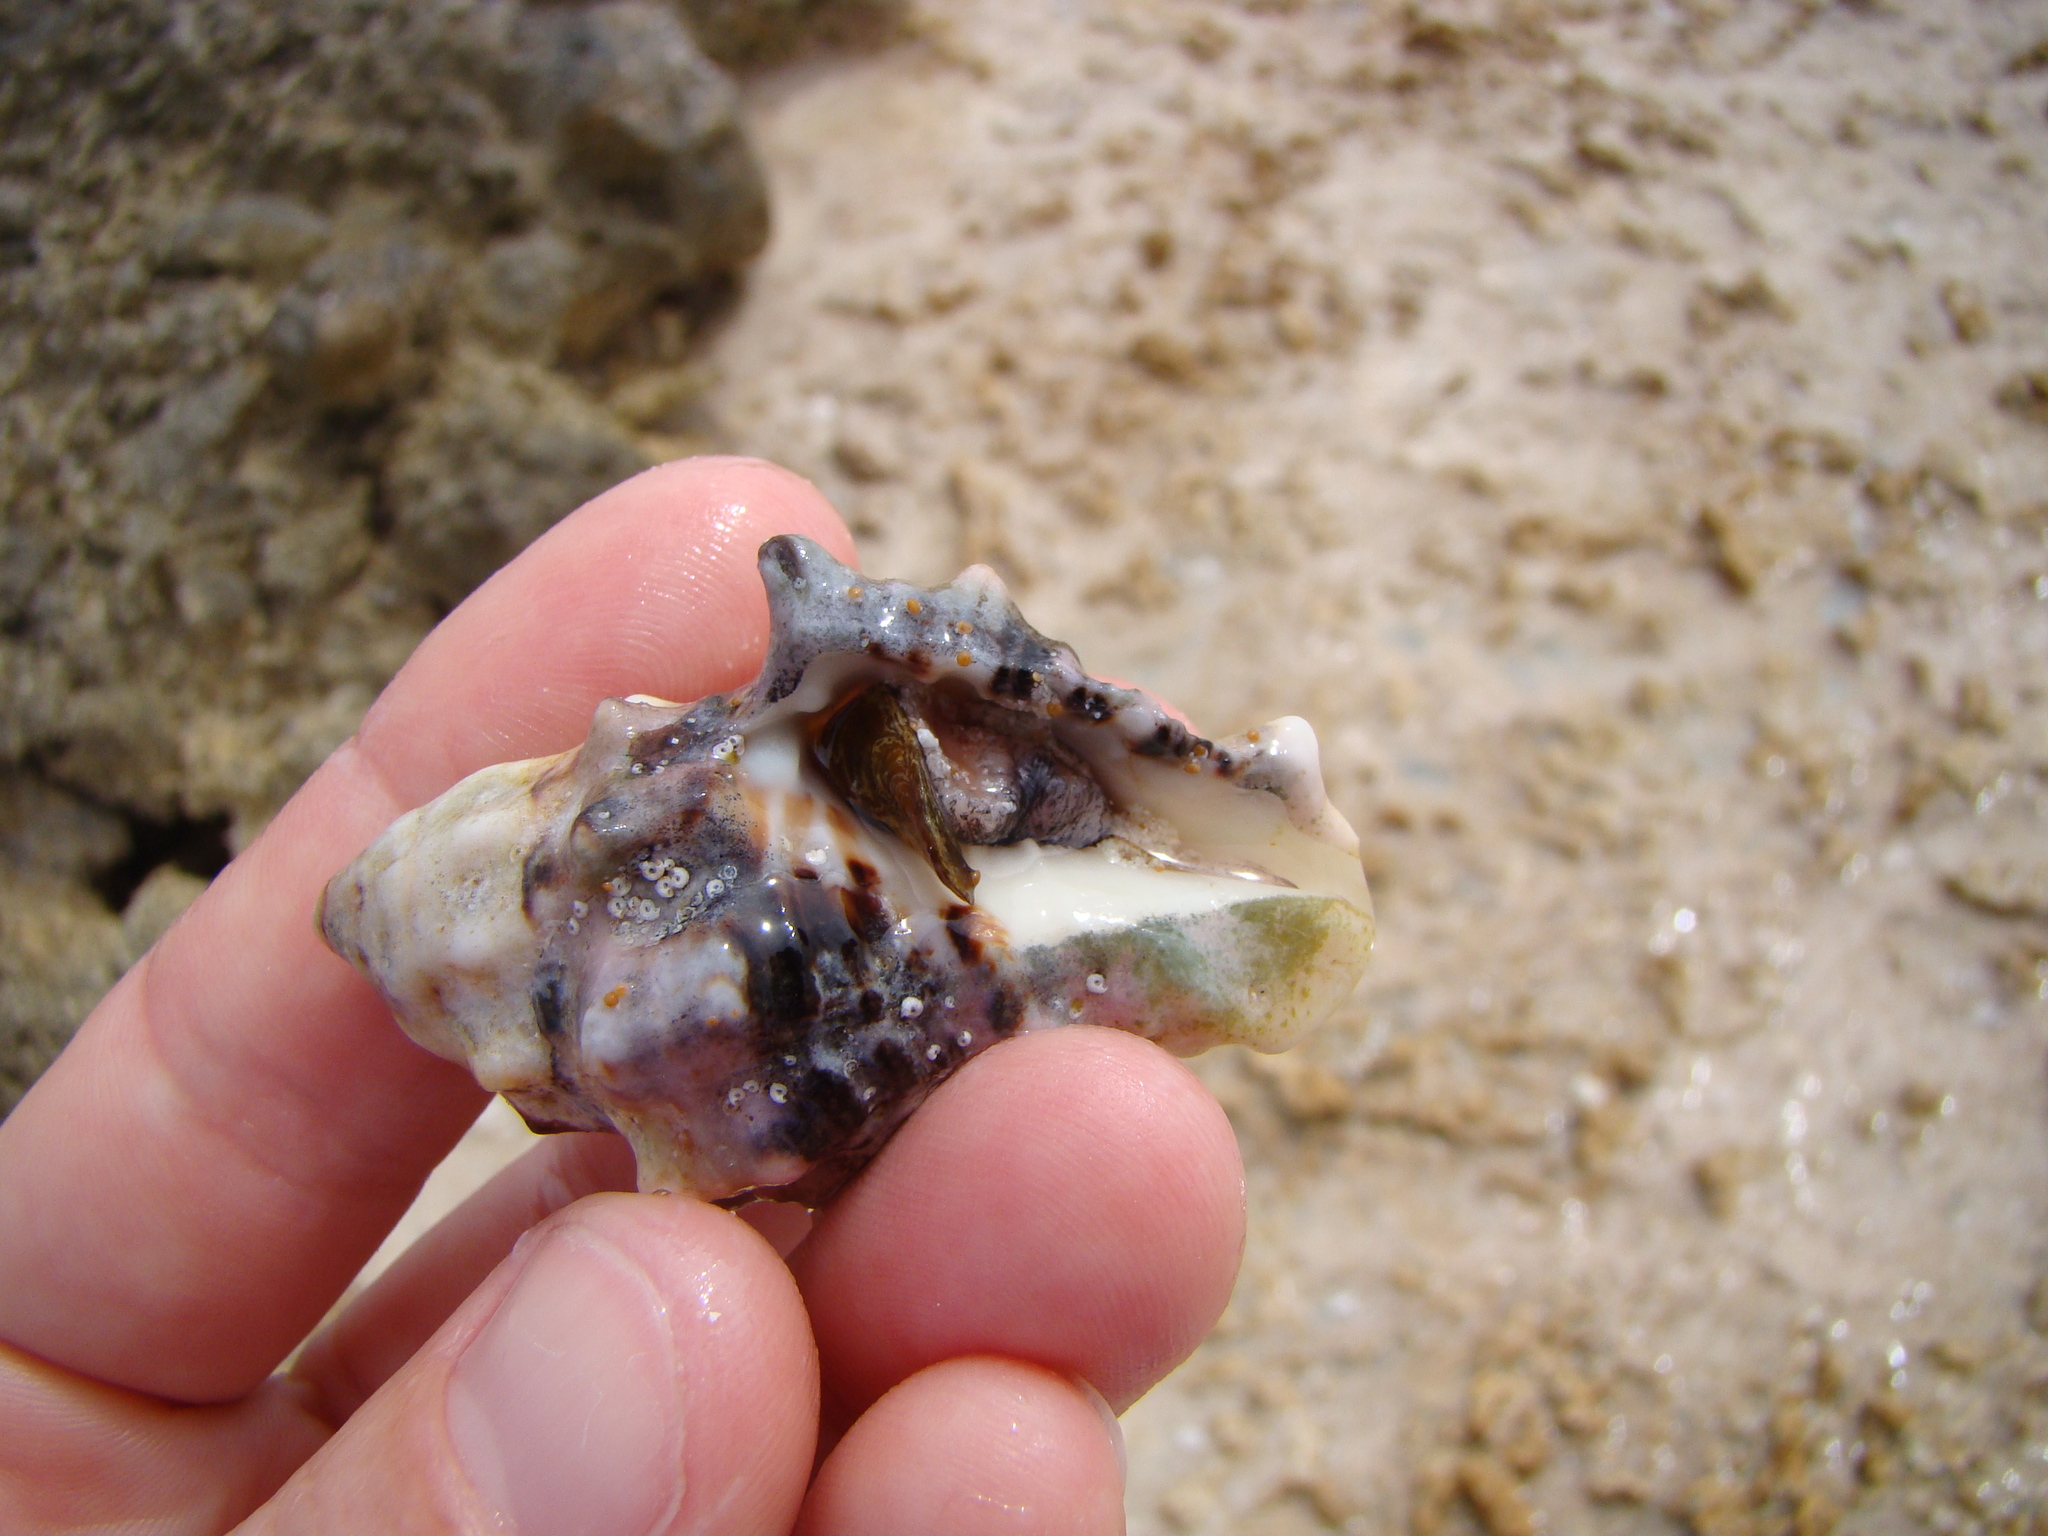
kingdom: Animalia
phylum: Mollusca
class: Gastropoda
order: Neogastropoda
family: Turbinellidae
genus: Vasum
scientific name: Vasum armatum
